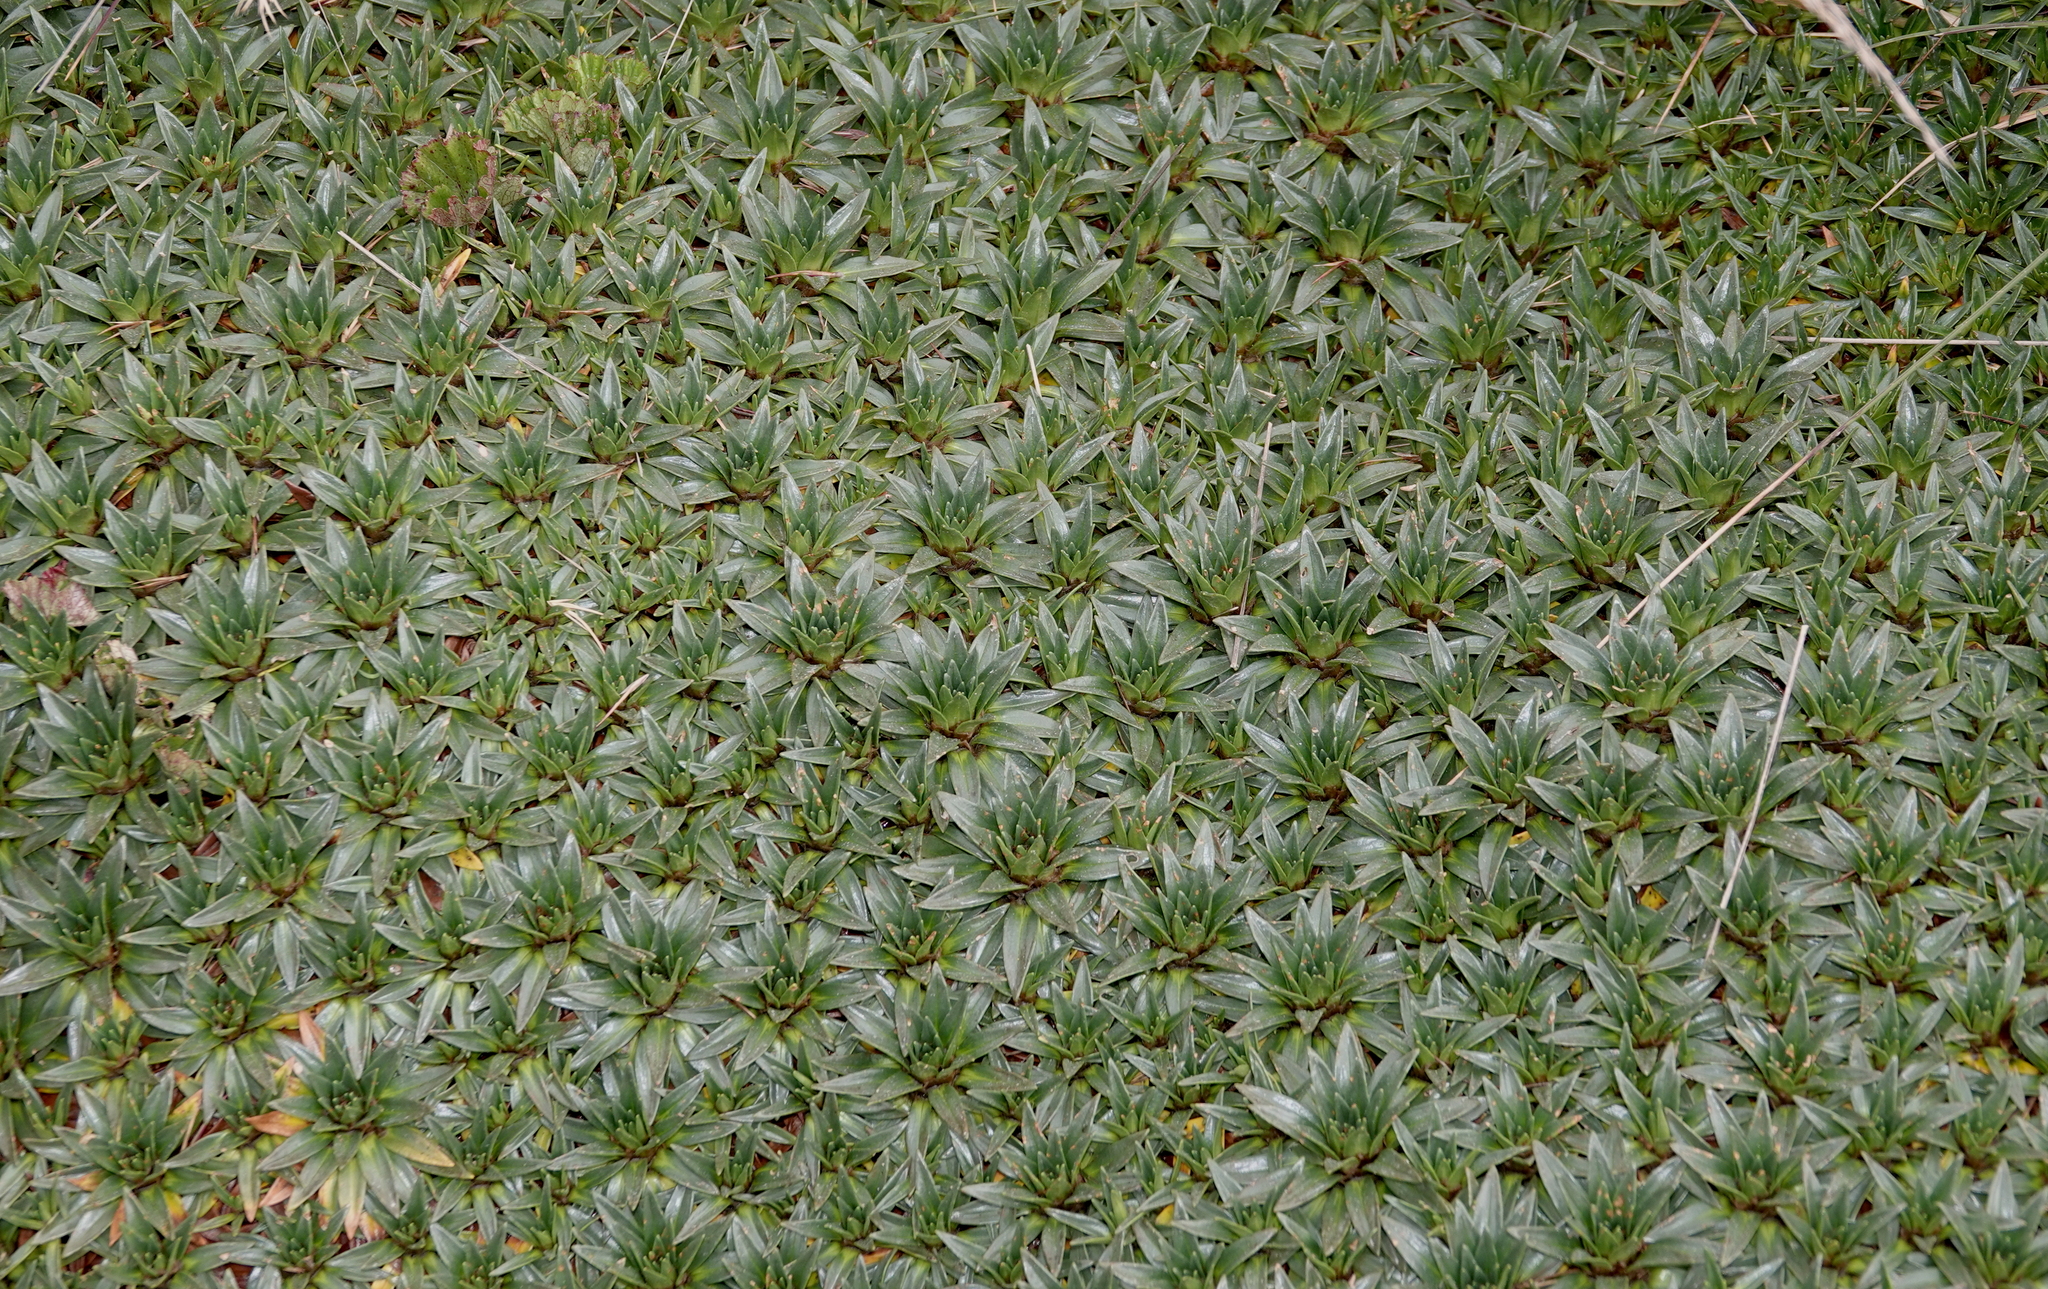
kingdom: Plantae
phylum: Tracheophyta
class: Magnoliopsida
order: Lamiales
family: Plantaginaceae
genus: Plantago
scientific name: Plantago rigida
